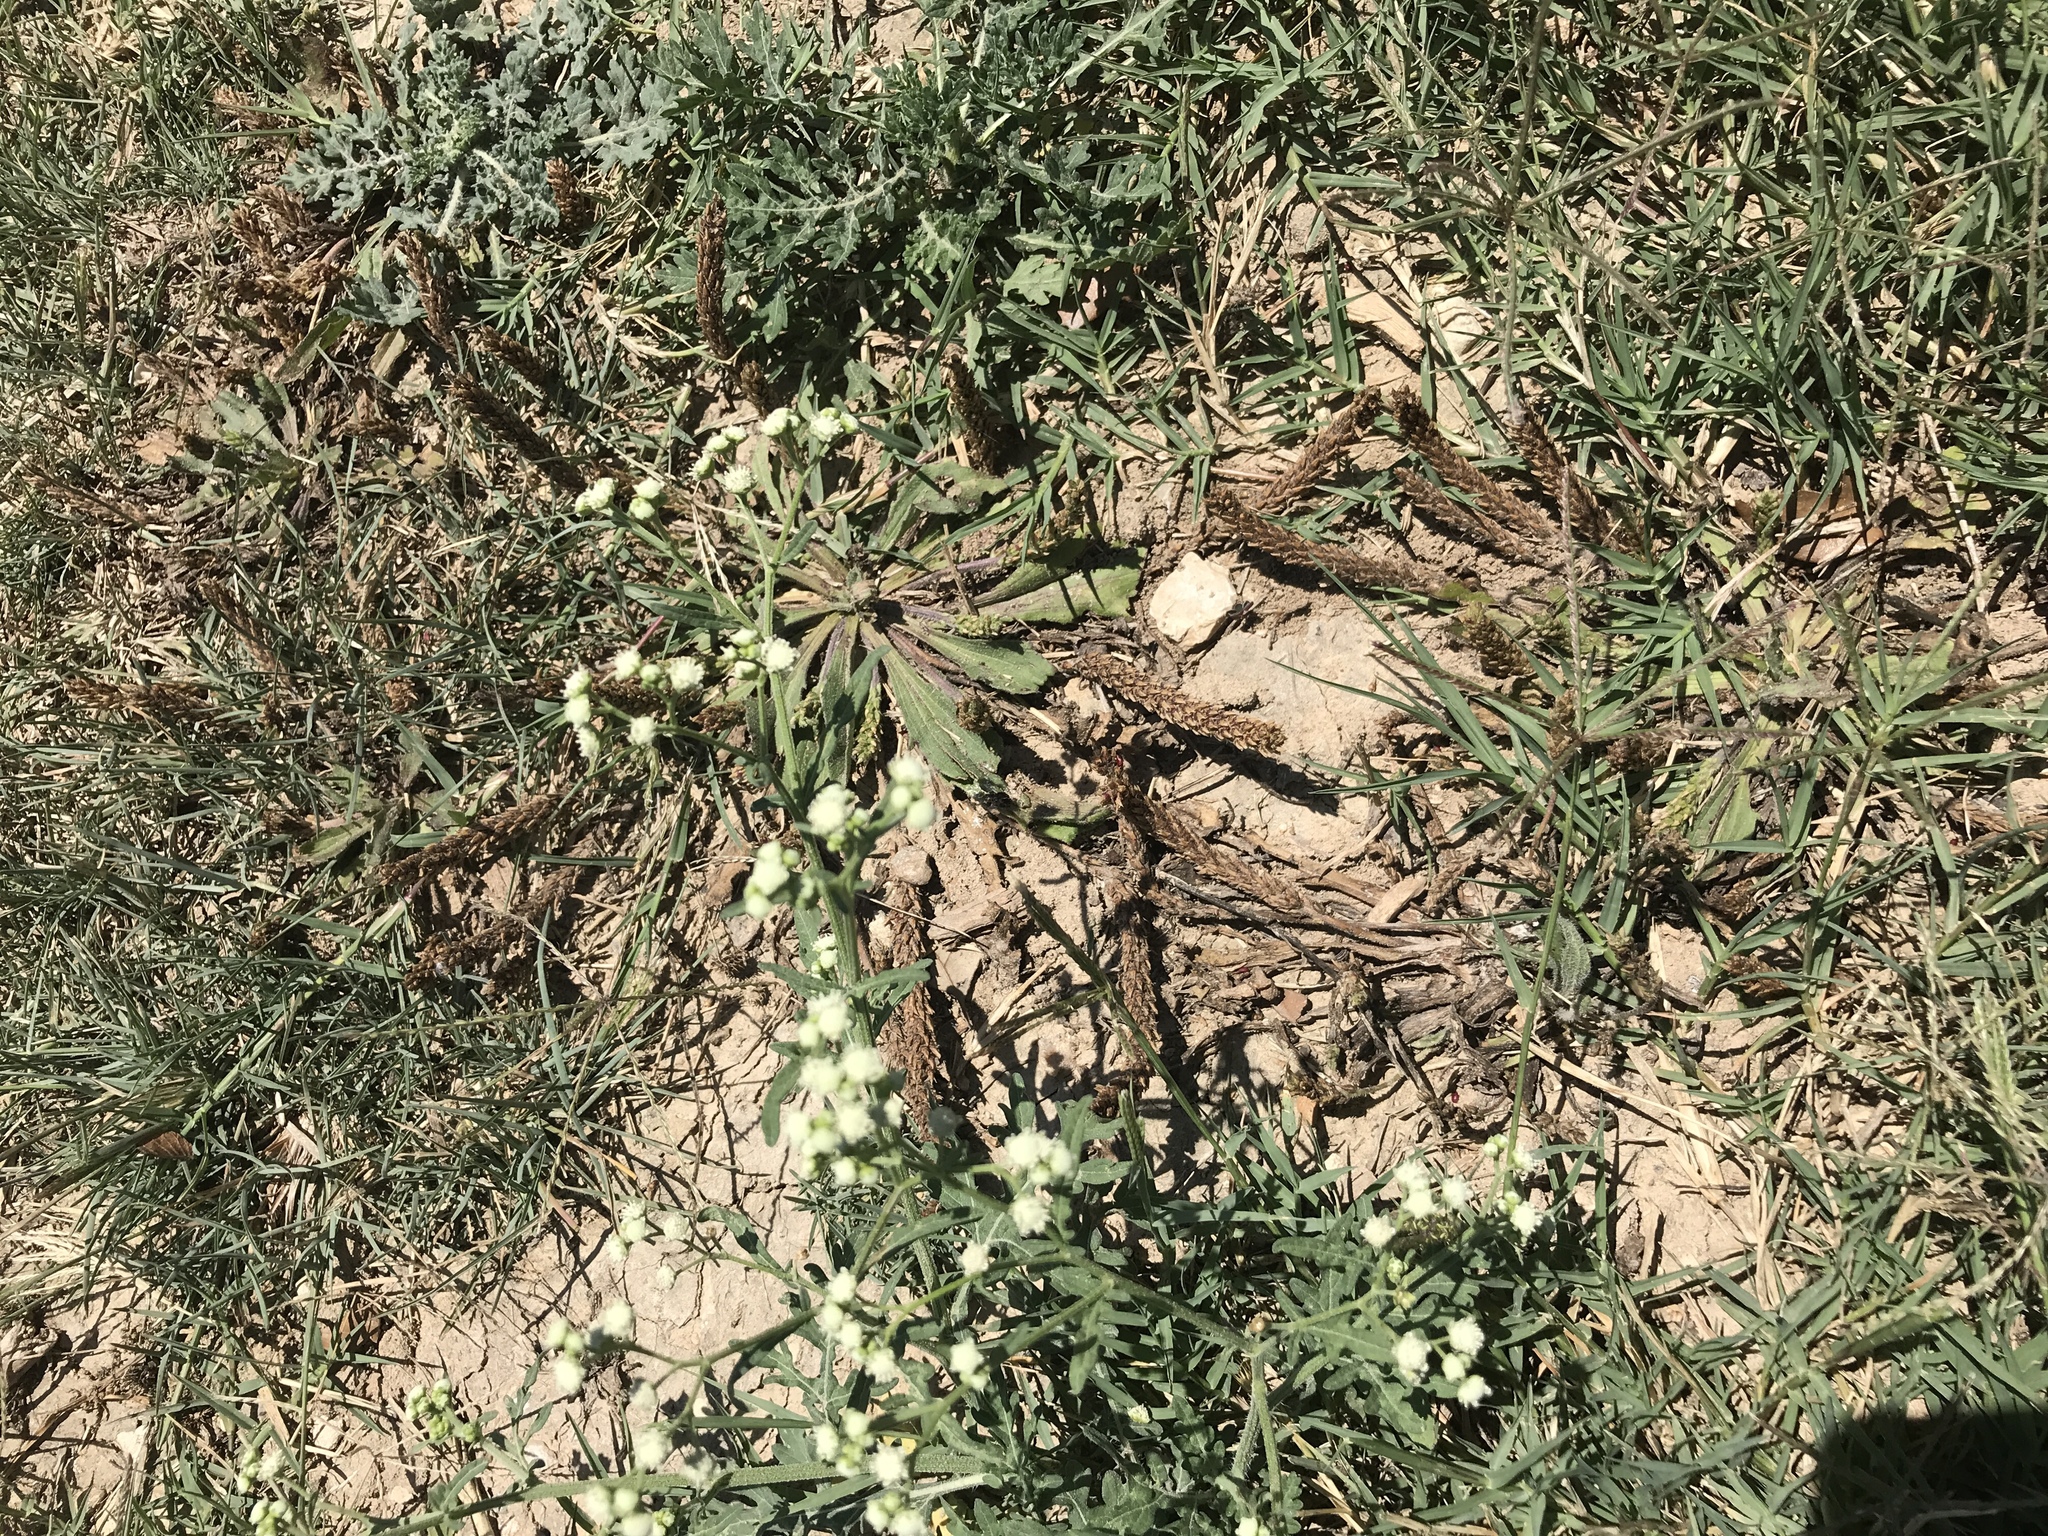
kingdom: Plantae
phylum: Tracheophyta
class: Magnoliopsida
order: Asterales
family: Asteraceae
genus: Parthenium
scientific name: Parthenium hysterophorus
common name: Santa maria feverfew
